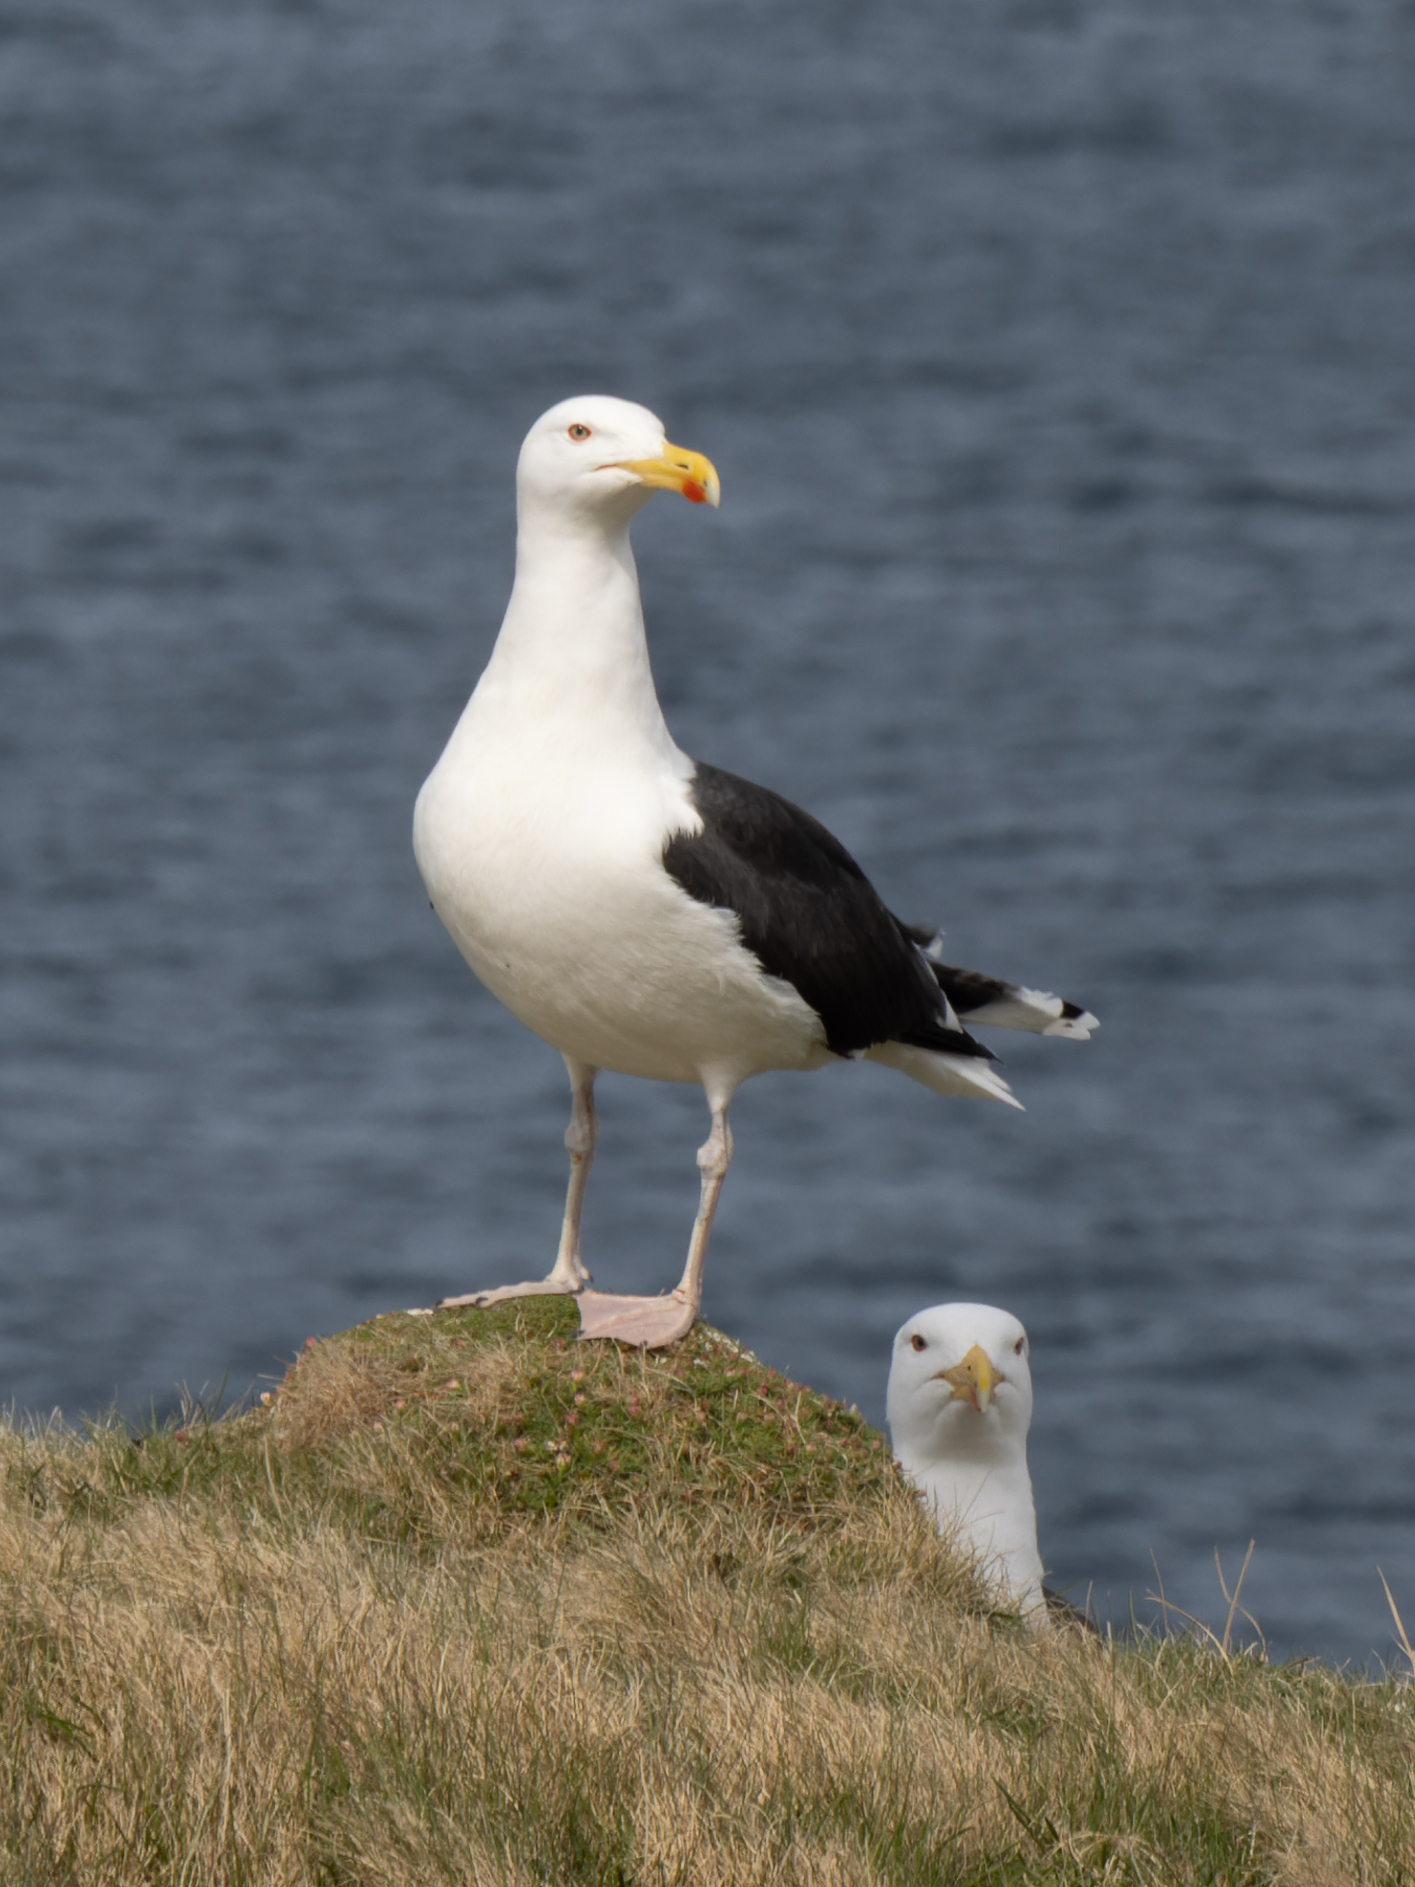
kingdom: Animalia
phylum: Chordata
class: Aves
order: Charadriiformes
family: Laridae
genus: Larus
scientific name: Larus marinus
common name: Great black-backed gull
